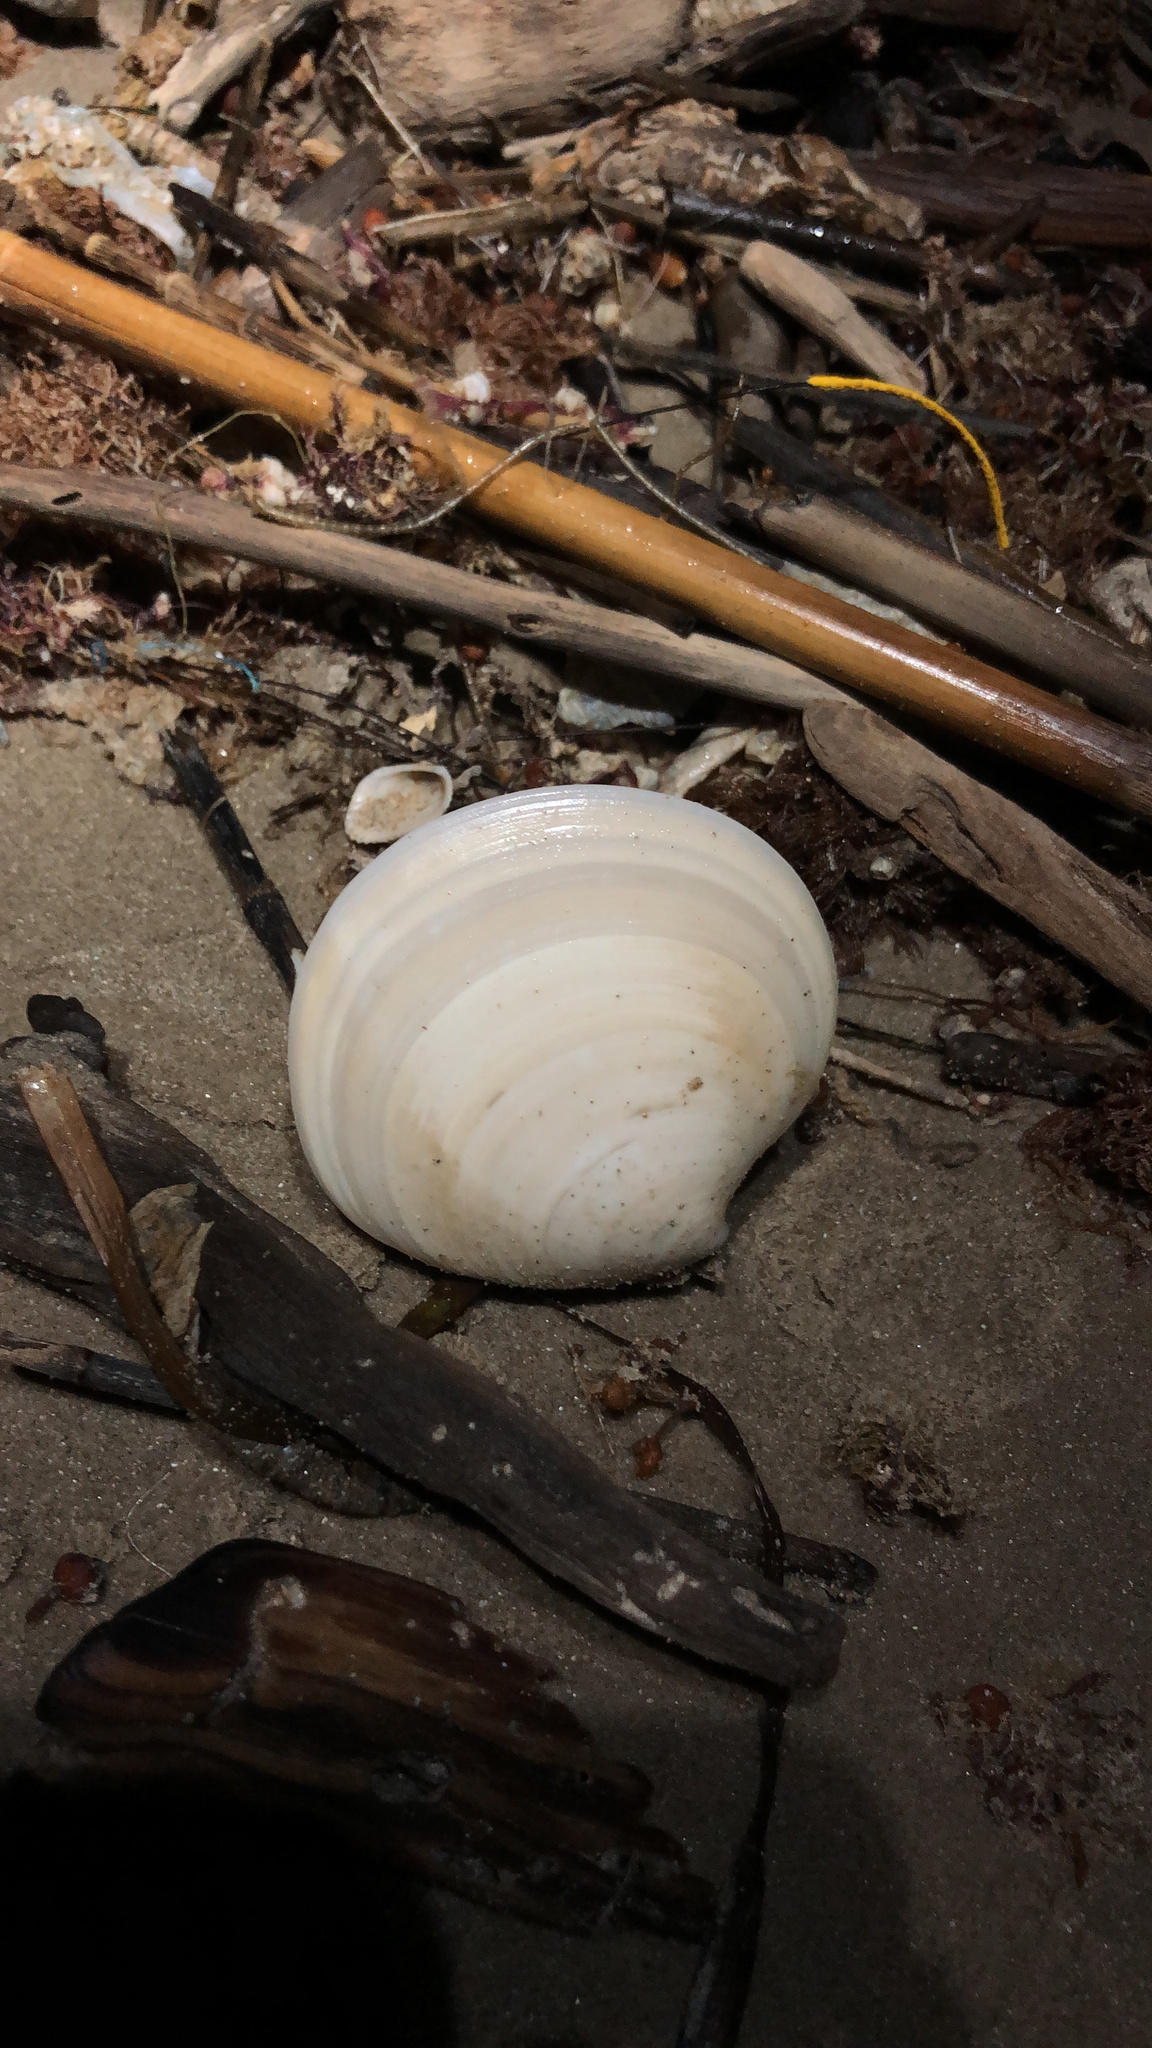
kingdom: Animalia
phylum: Mollusca
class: Bivalvia
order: Venerida
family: Veneridae
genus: Dosinia
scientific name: Dosinia discus
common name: Disk dosinia
